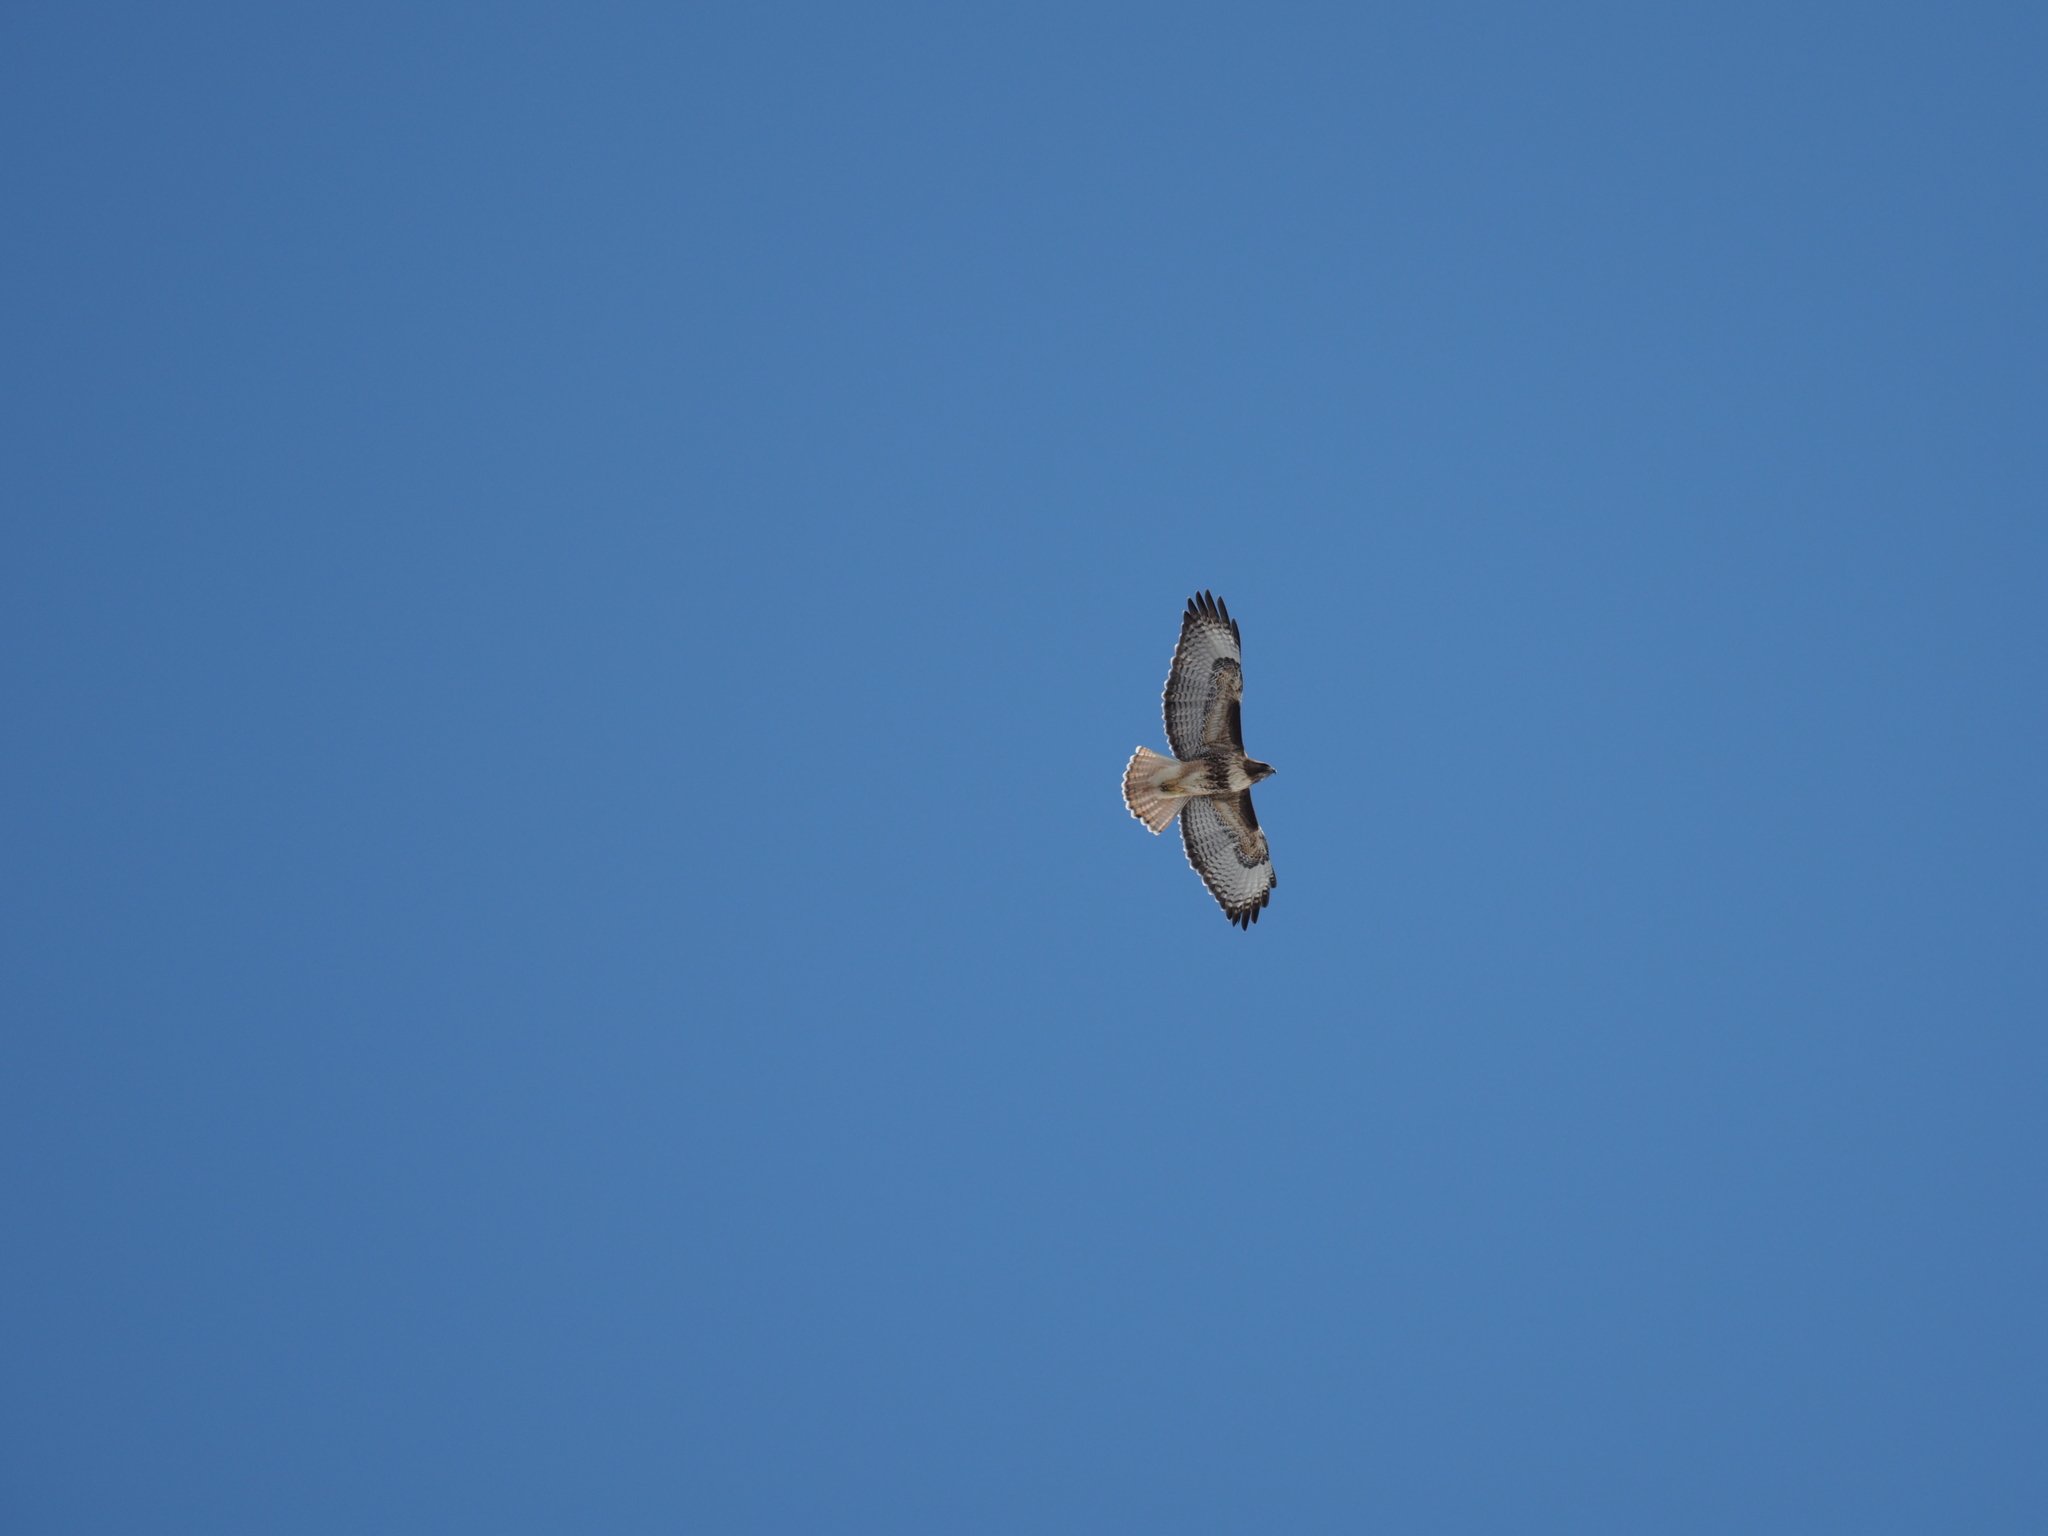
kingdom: Animalia
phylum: Chordata
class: Aves
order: Accipitriformes
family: Accipitridae
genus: Buteo
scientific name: Buteo jamaicensis
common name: Red-tailed hawk
